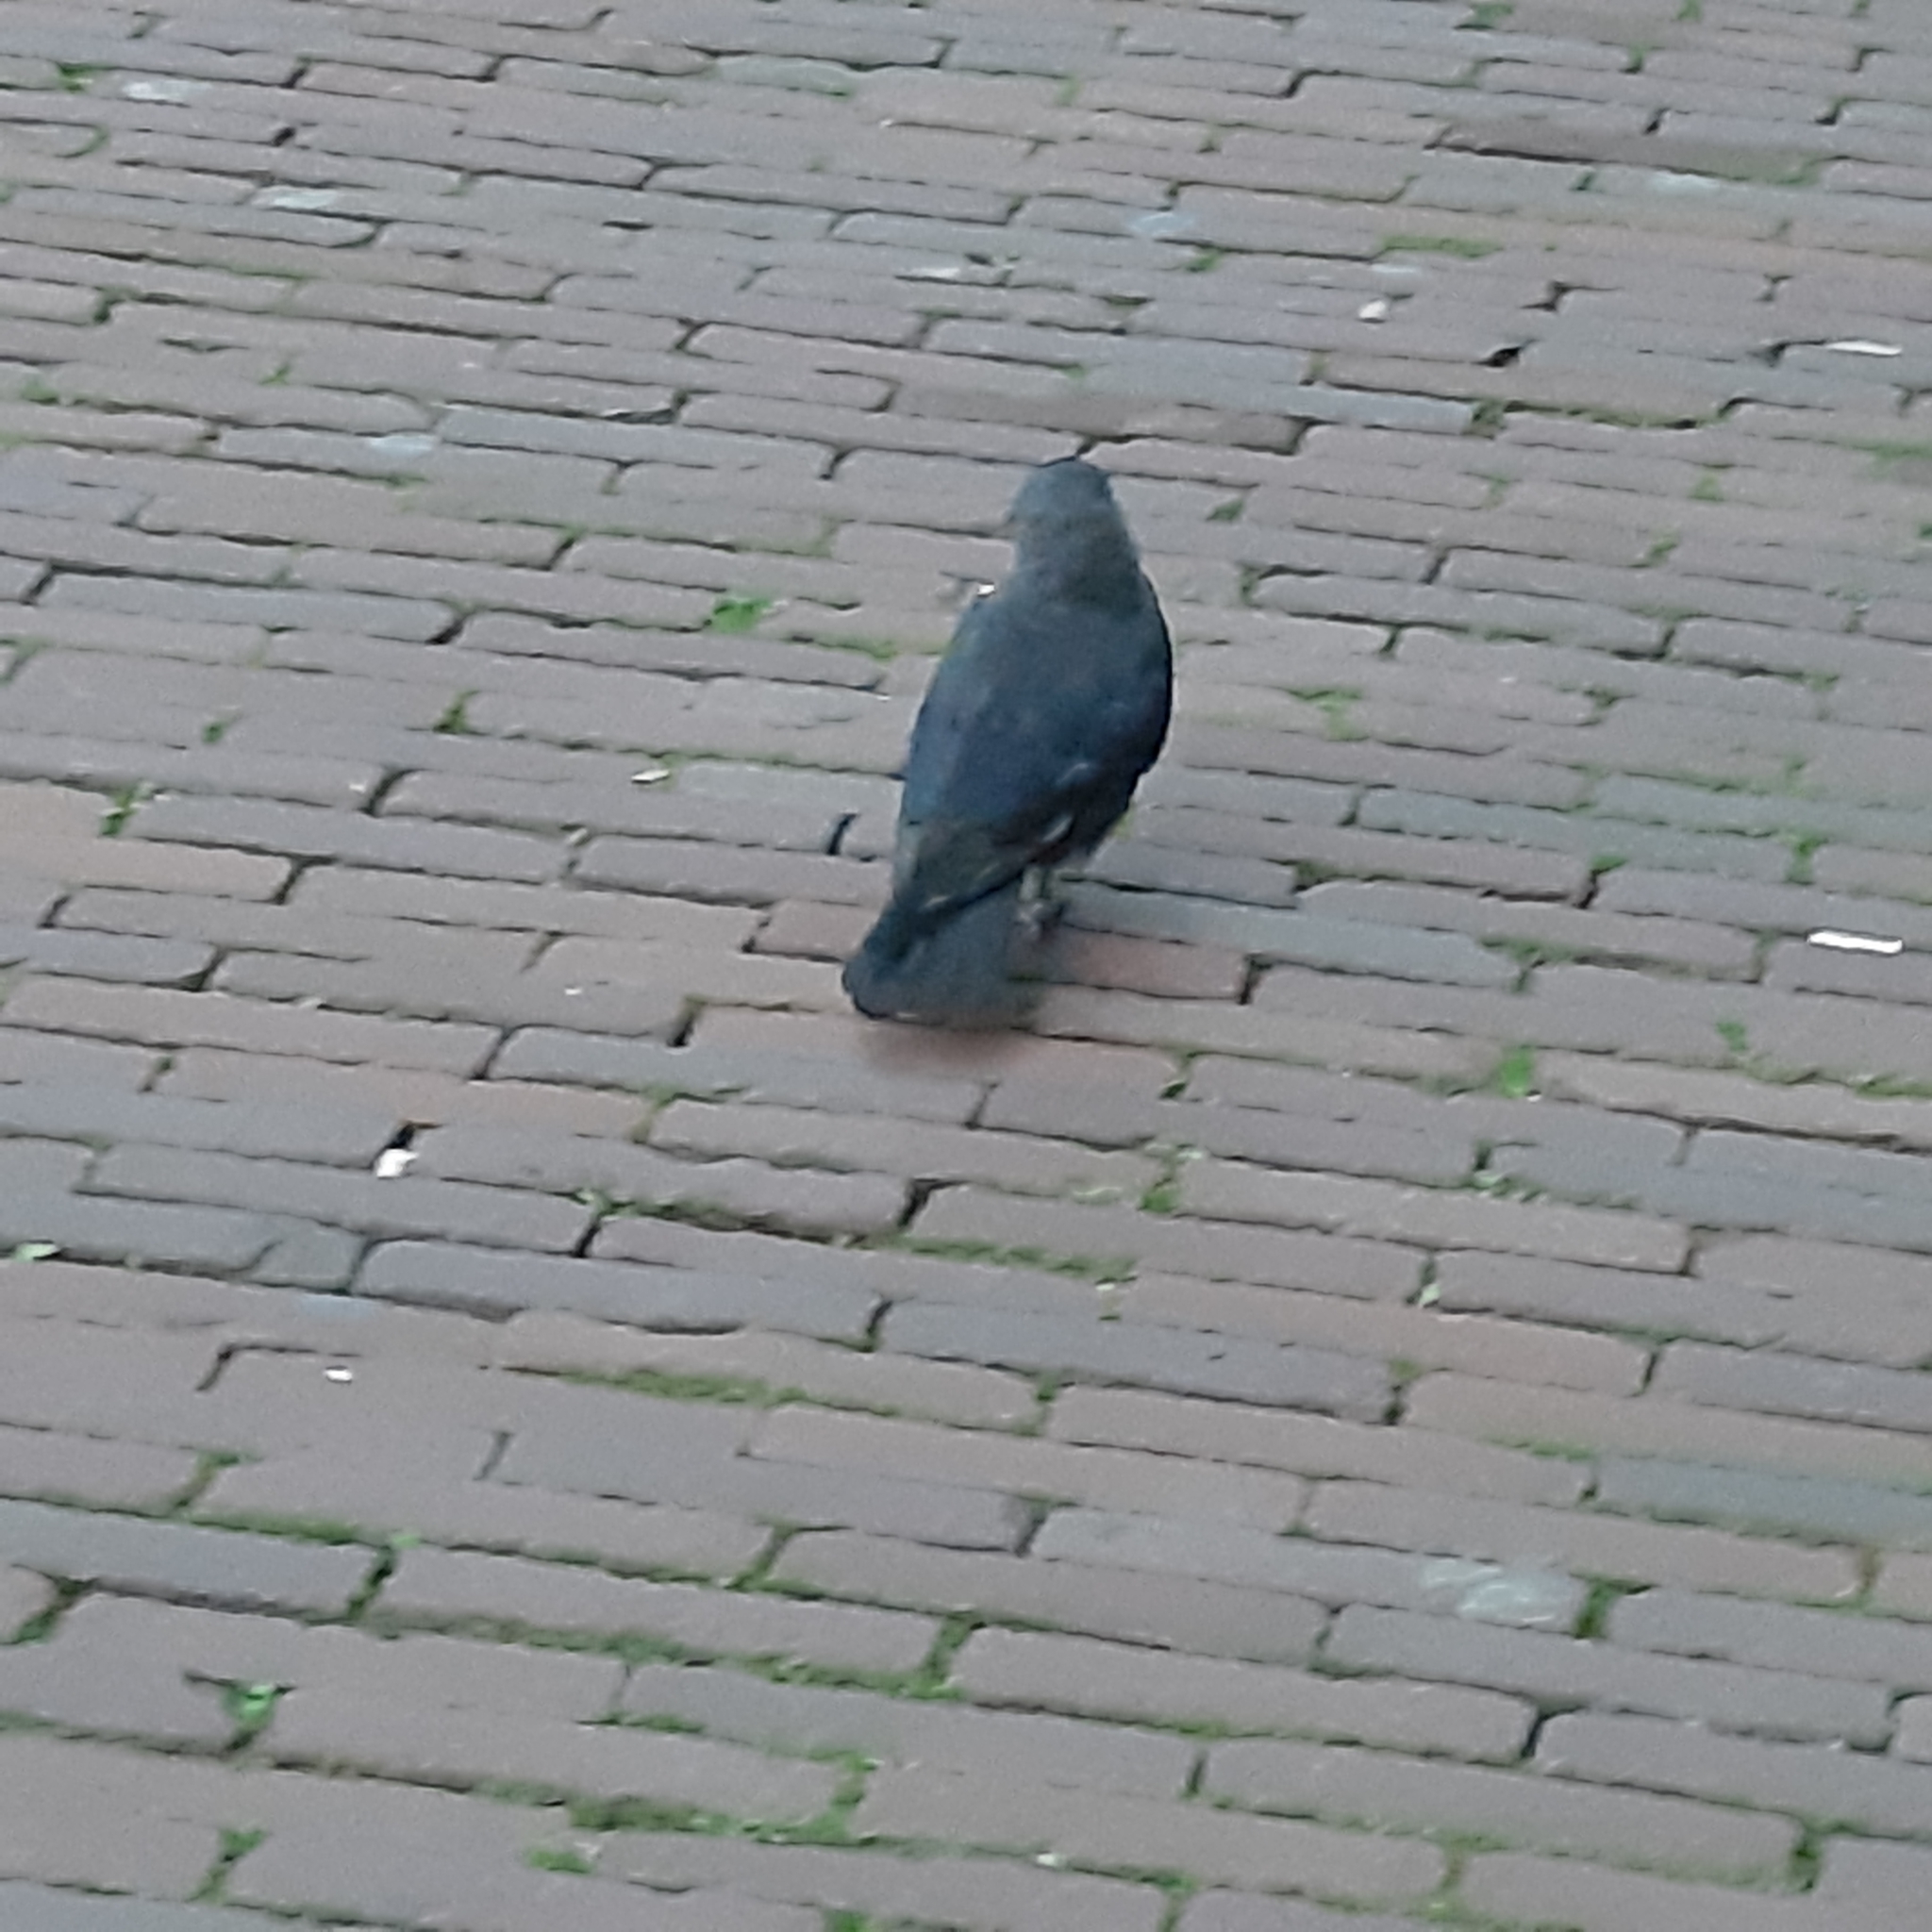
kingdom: Animalia
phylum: Chordata
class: Aves
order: Passeriformes
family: Corvidae
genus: Coloeus
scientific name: Coloeus monedula
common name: Western jackdaw
